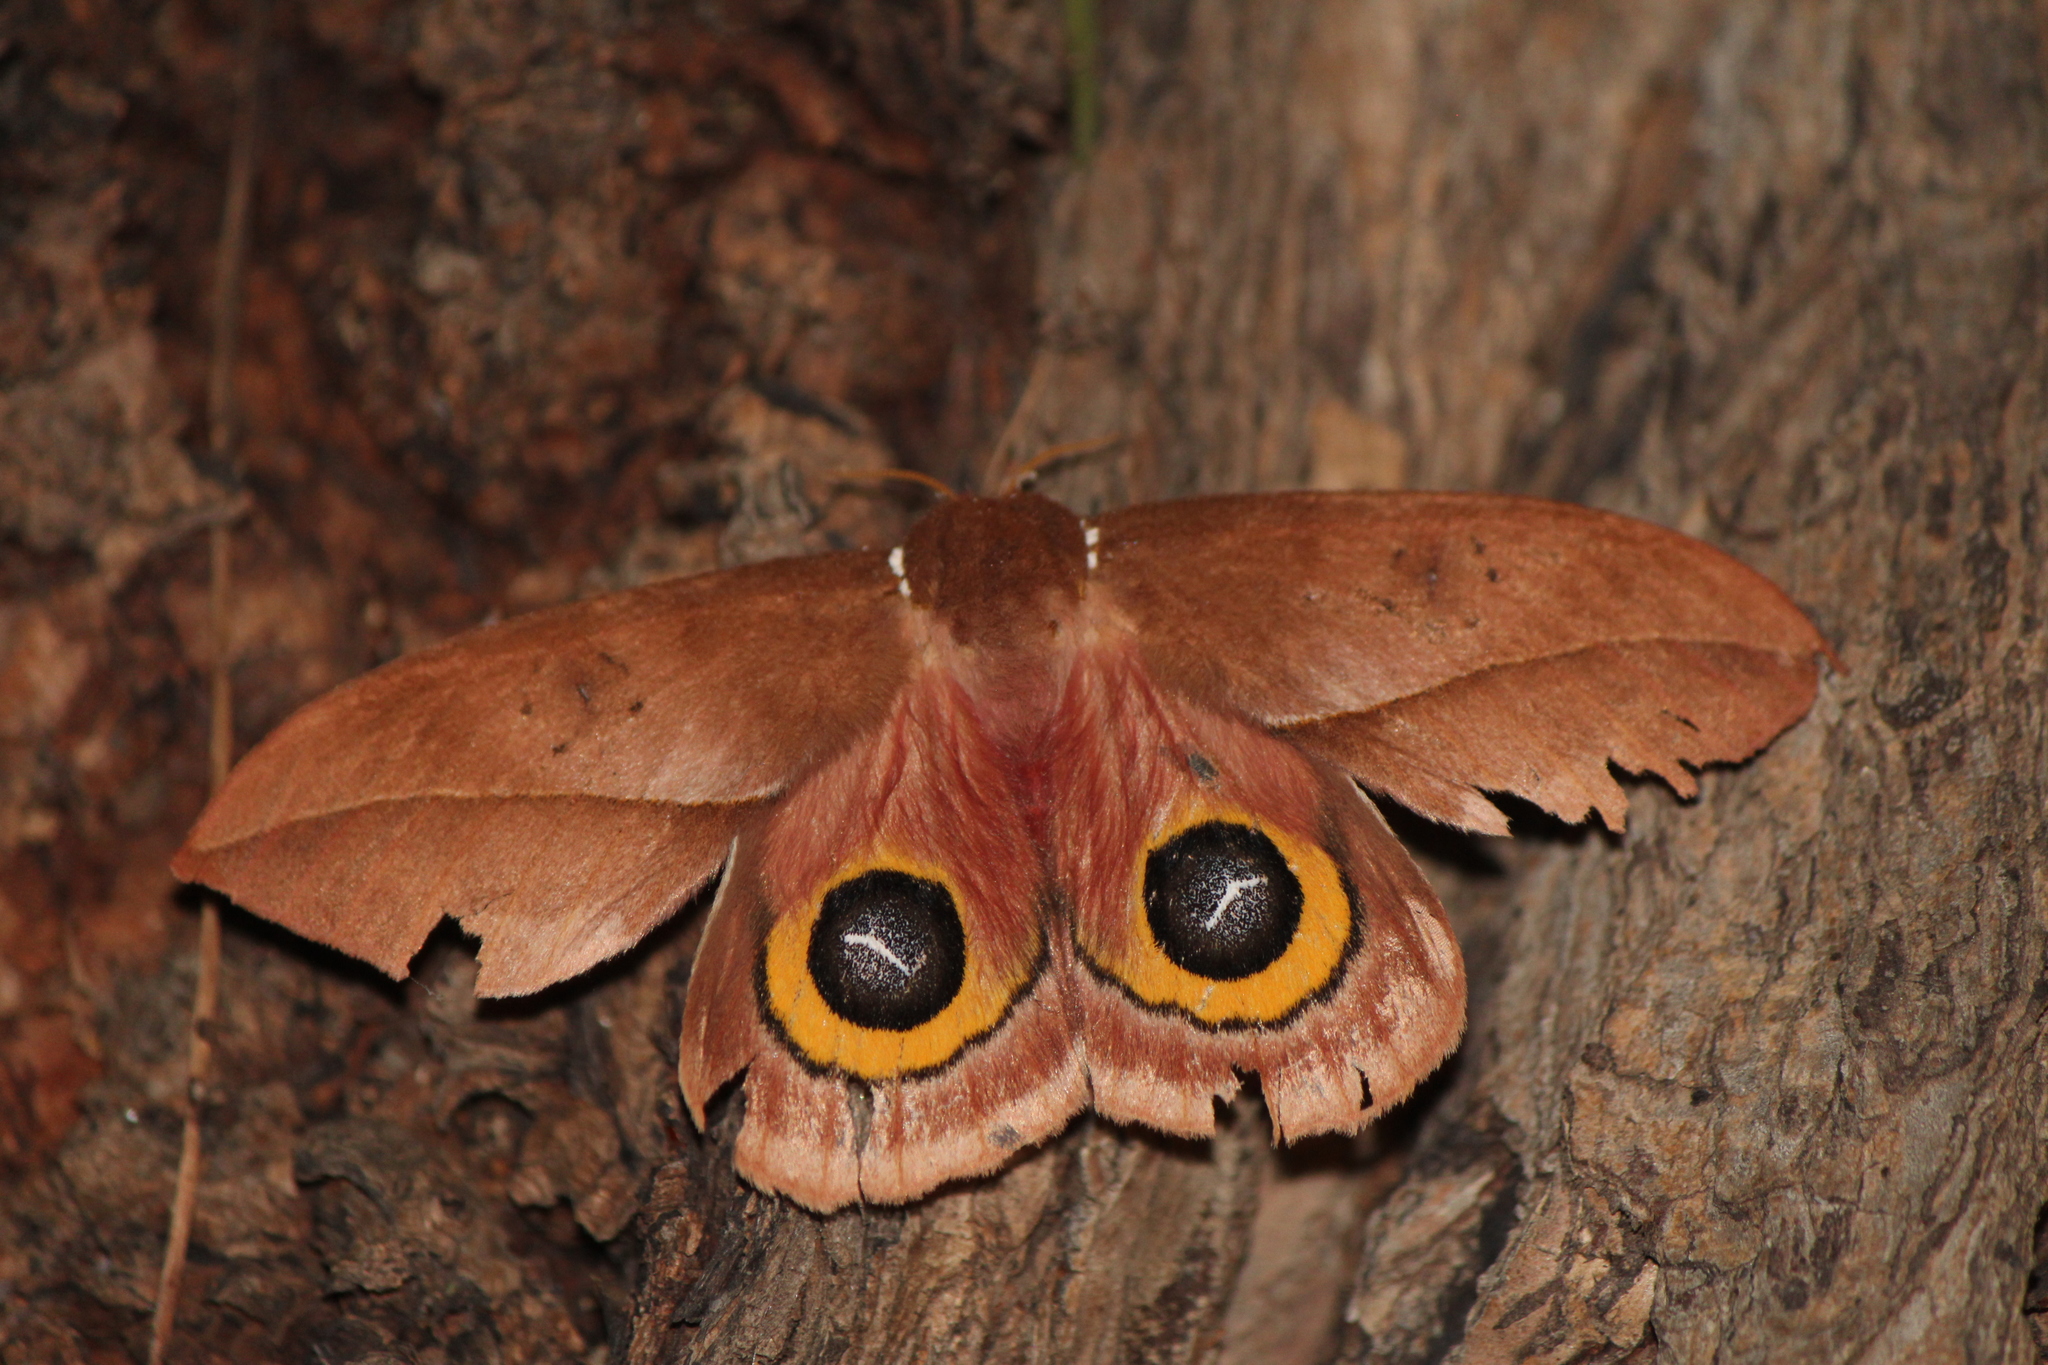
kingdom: Animalia
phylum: Arthropoda
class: Insecta
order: Lepidoptera
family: Saturniidae
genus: Automeris
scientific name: Automeris belti
